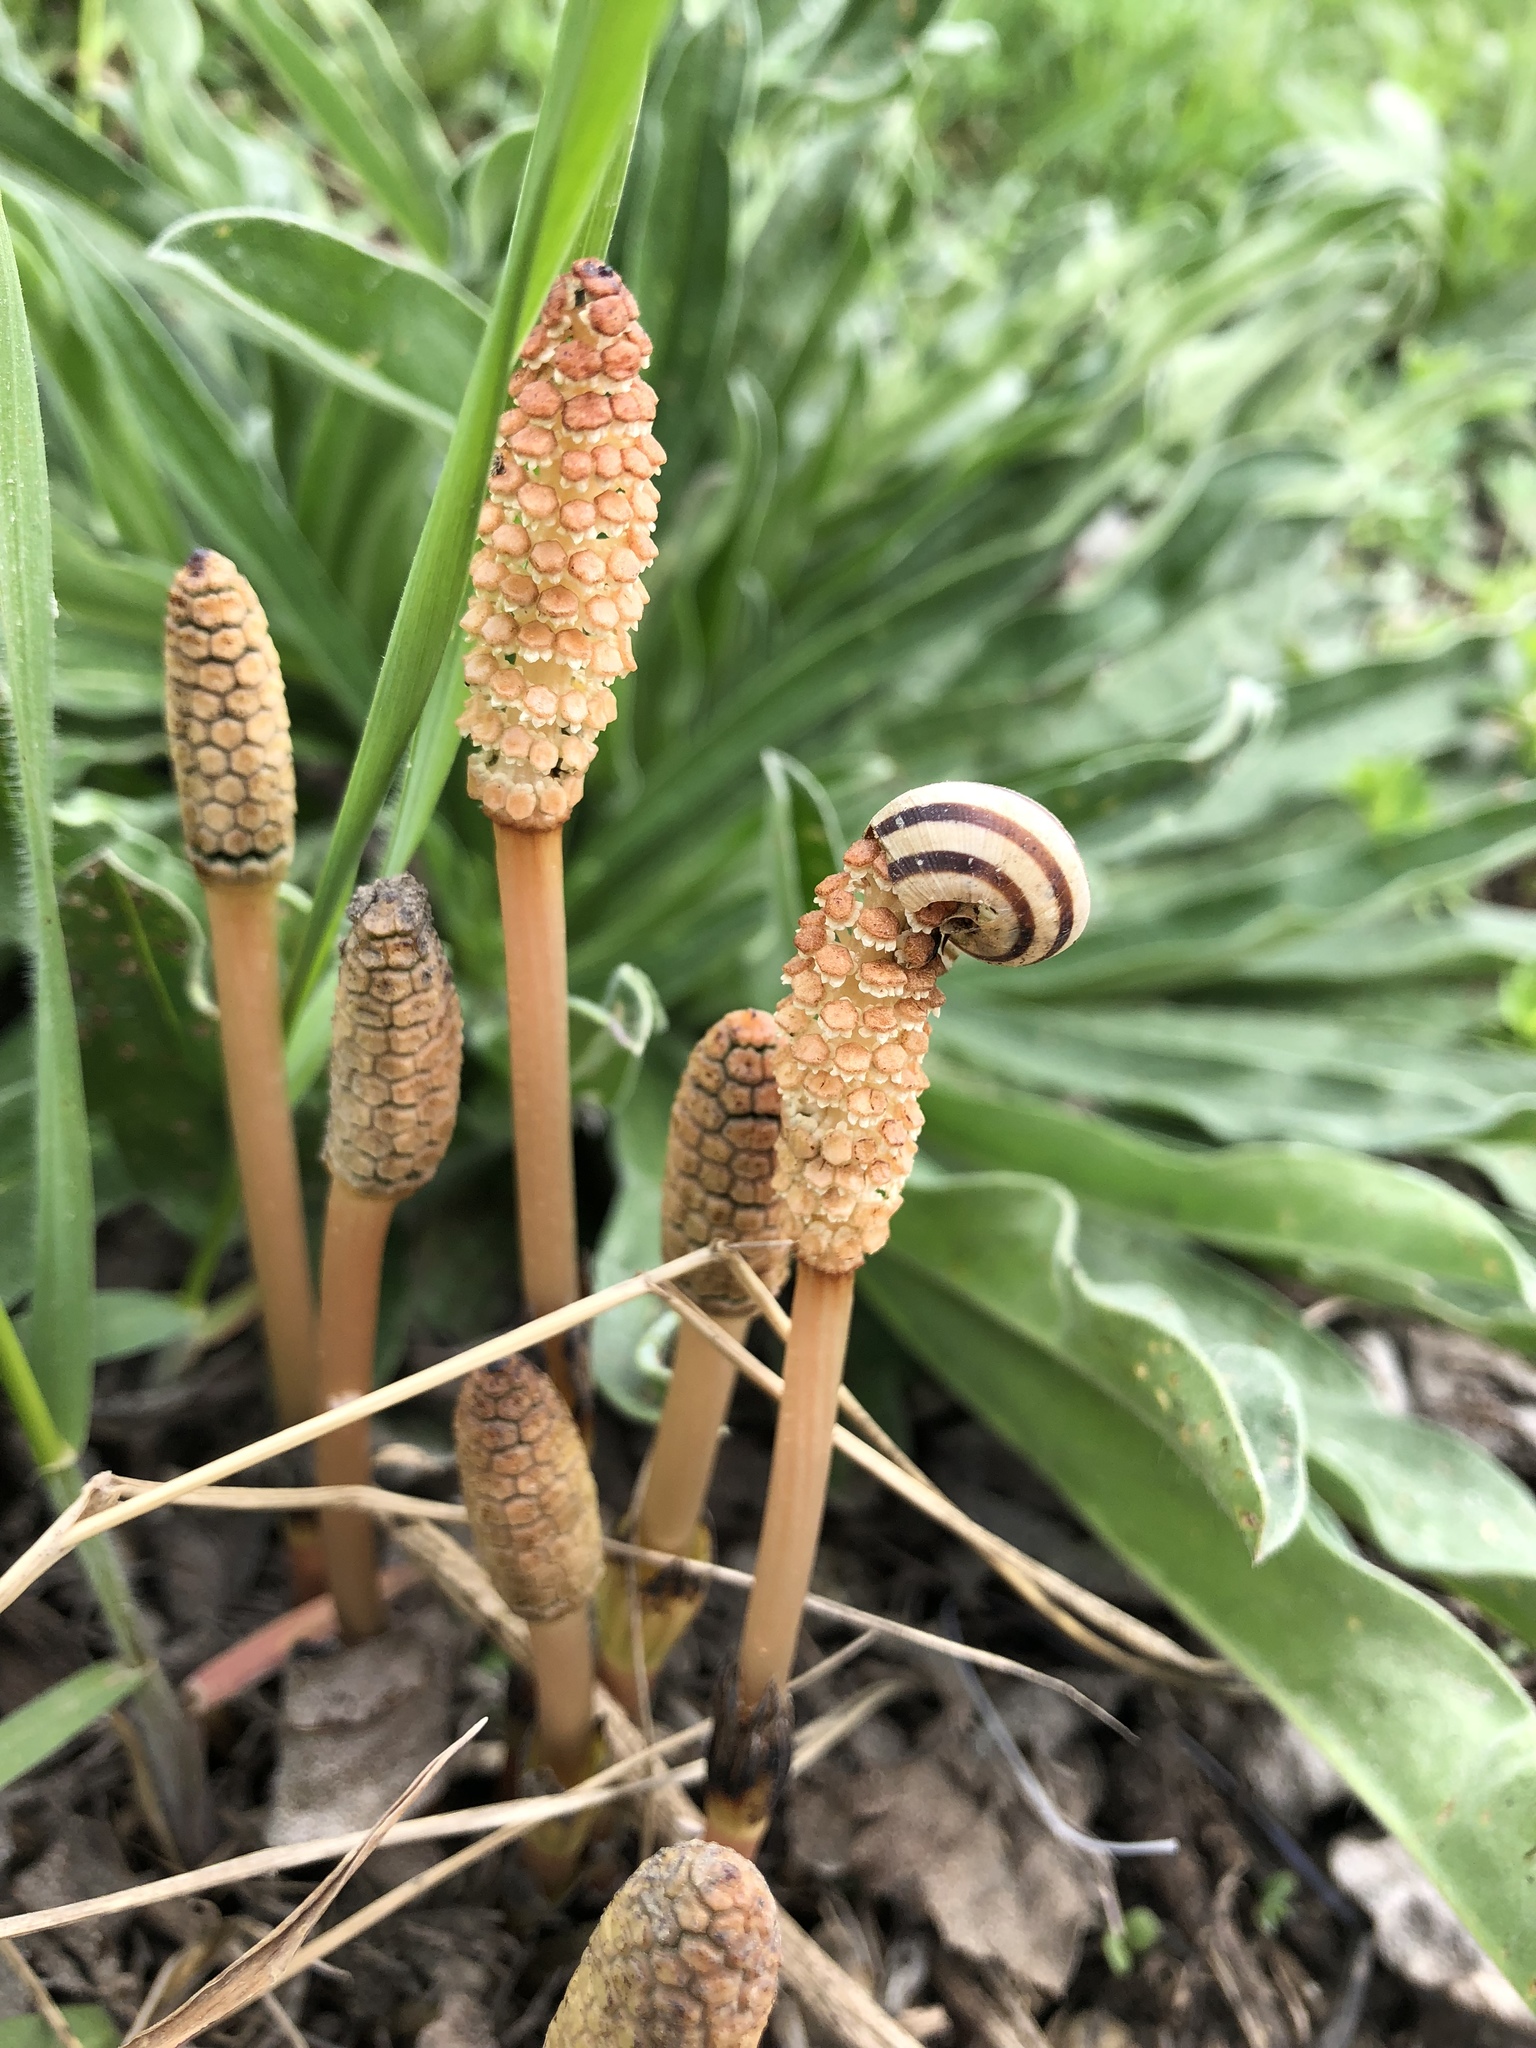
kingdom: Animalia
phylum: Mollusca
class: Gastropoda
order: Stylommatophora
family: Helicidae
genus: Caucasotachea
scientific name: Caucasotachea vindobonensis
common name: European helicid land snail
